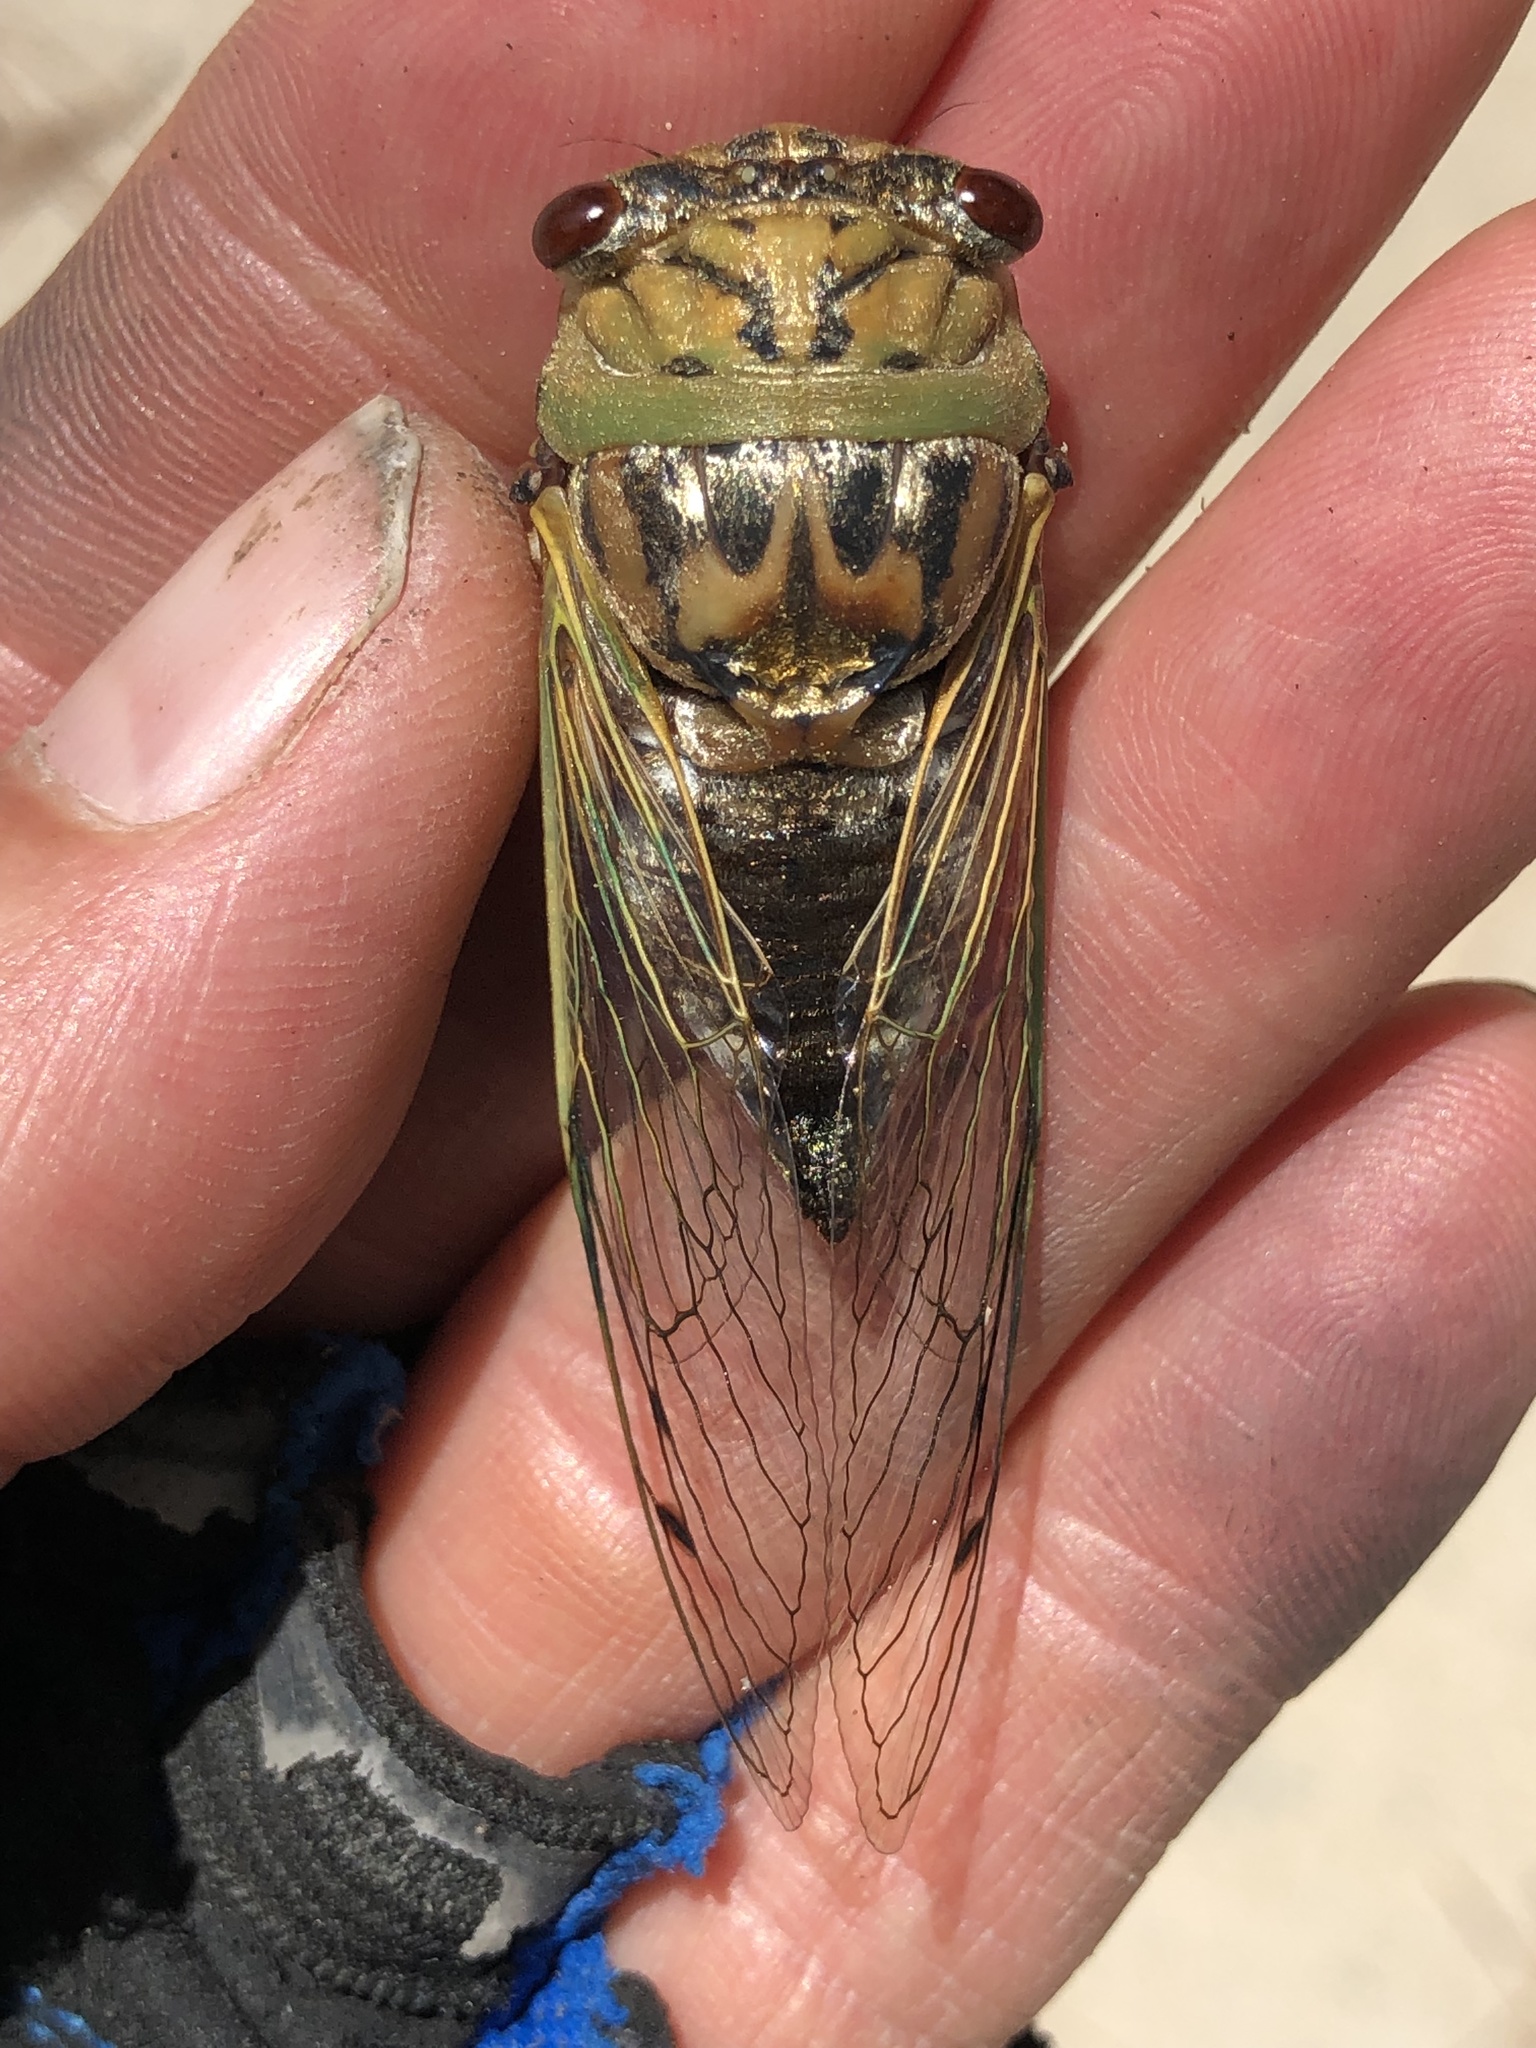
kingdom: Animalia
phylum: Arthropoda
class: Insecta
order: Hemiptera
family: Cicadidae
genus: Megatibicen
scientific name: Megatibicen resh
